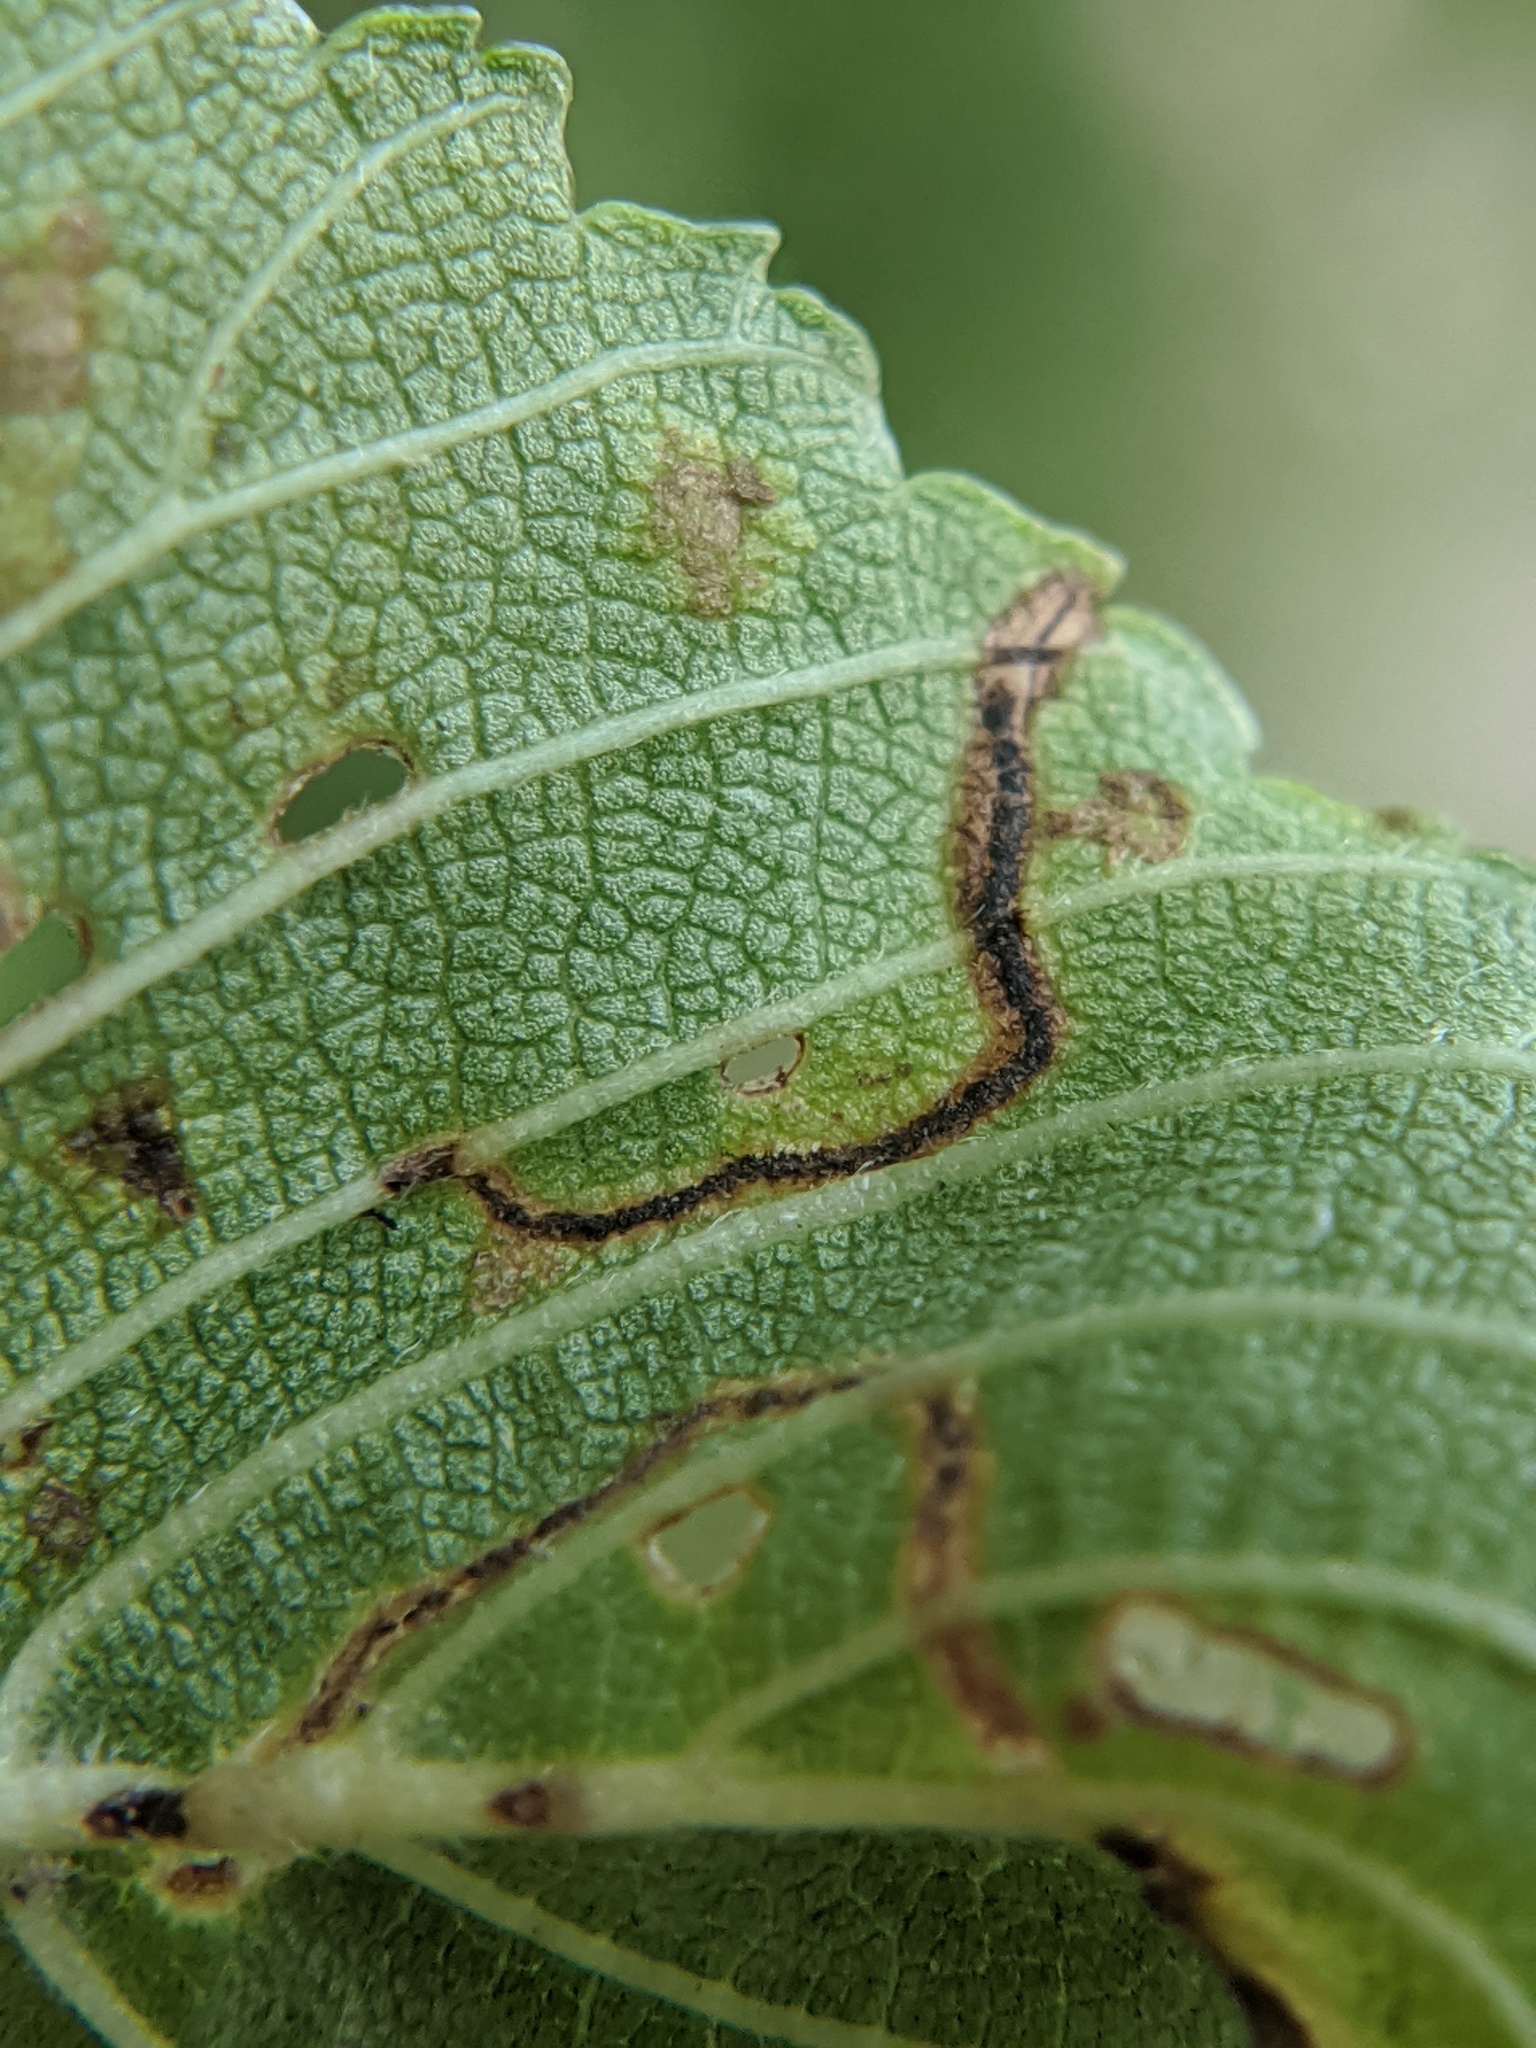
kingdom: Animalia
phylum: Arthropoda
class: Insecta
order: Coleoptera
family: Curculionidae
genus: Orchestes
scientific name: Orchestes steppensis
